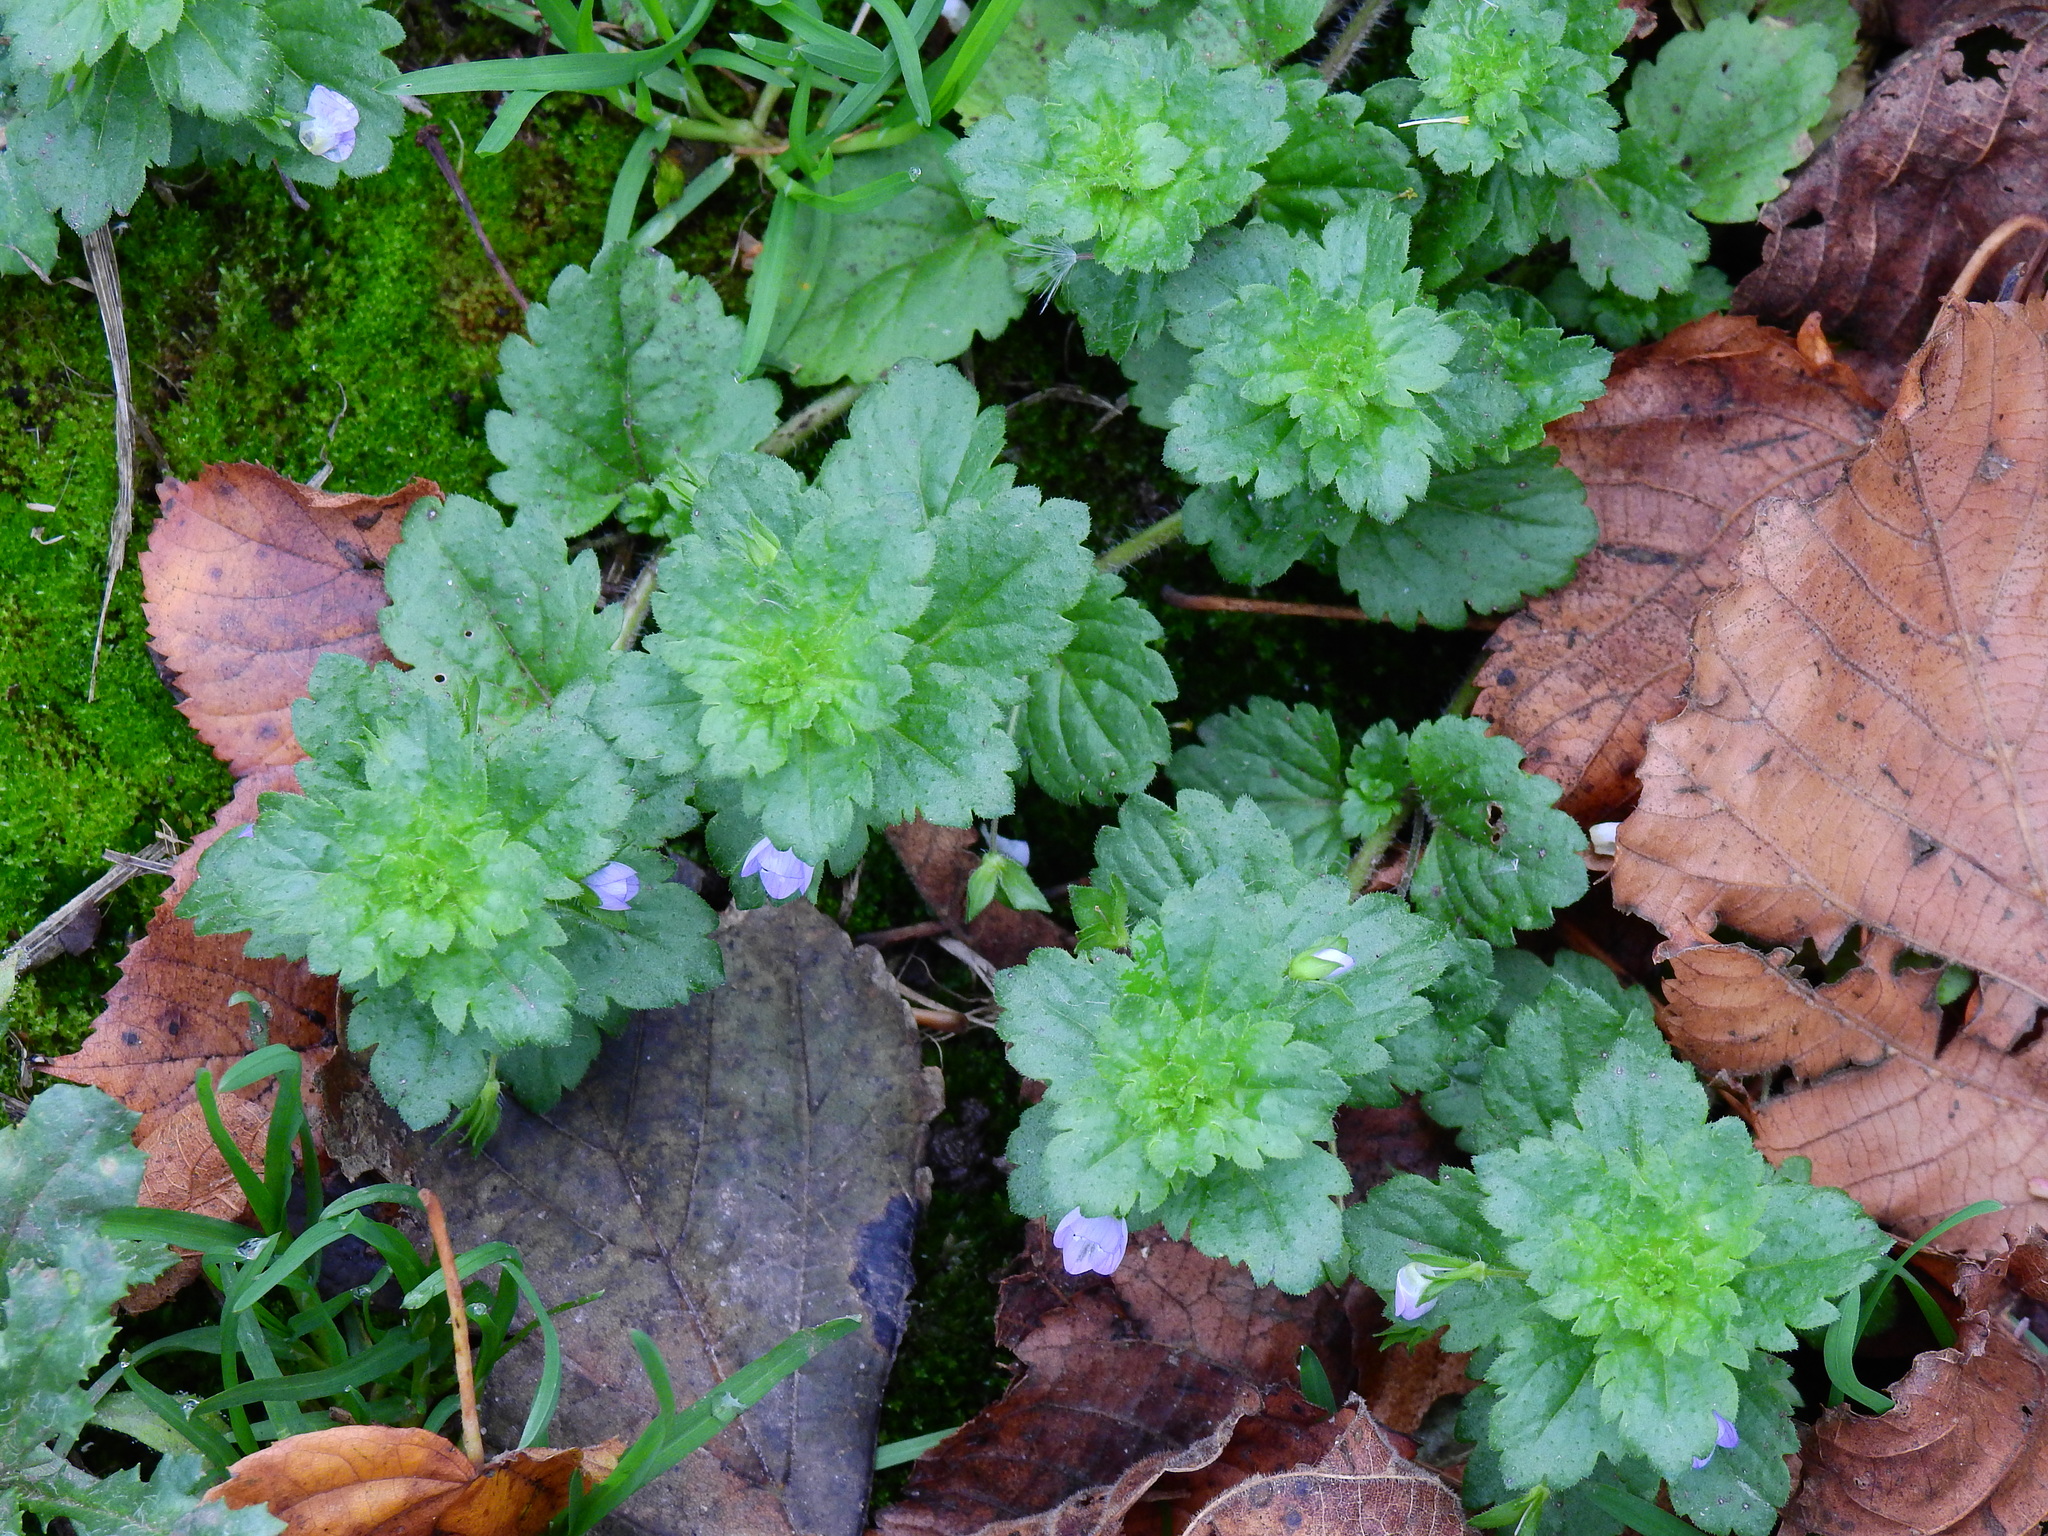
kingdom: Plantae
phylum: Tracheophyta
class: Magnoliopsida
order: Lamiales
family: Plantaginaceae
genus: Veronica
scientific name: Veronica persica
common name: Common field-speedwell
